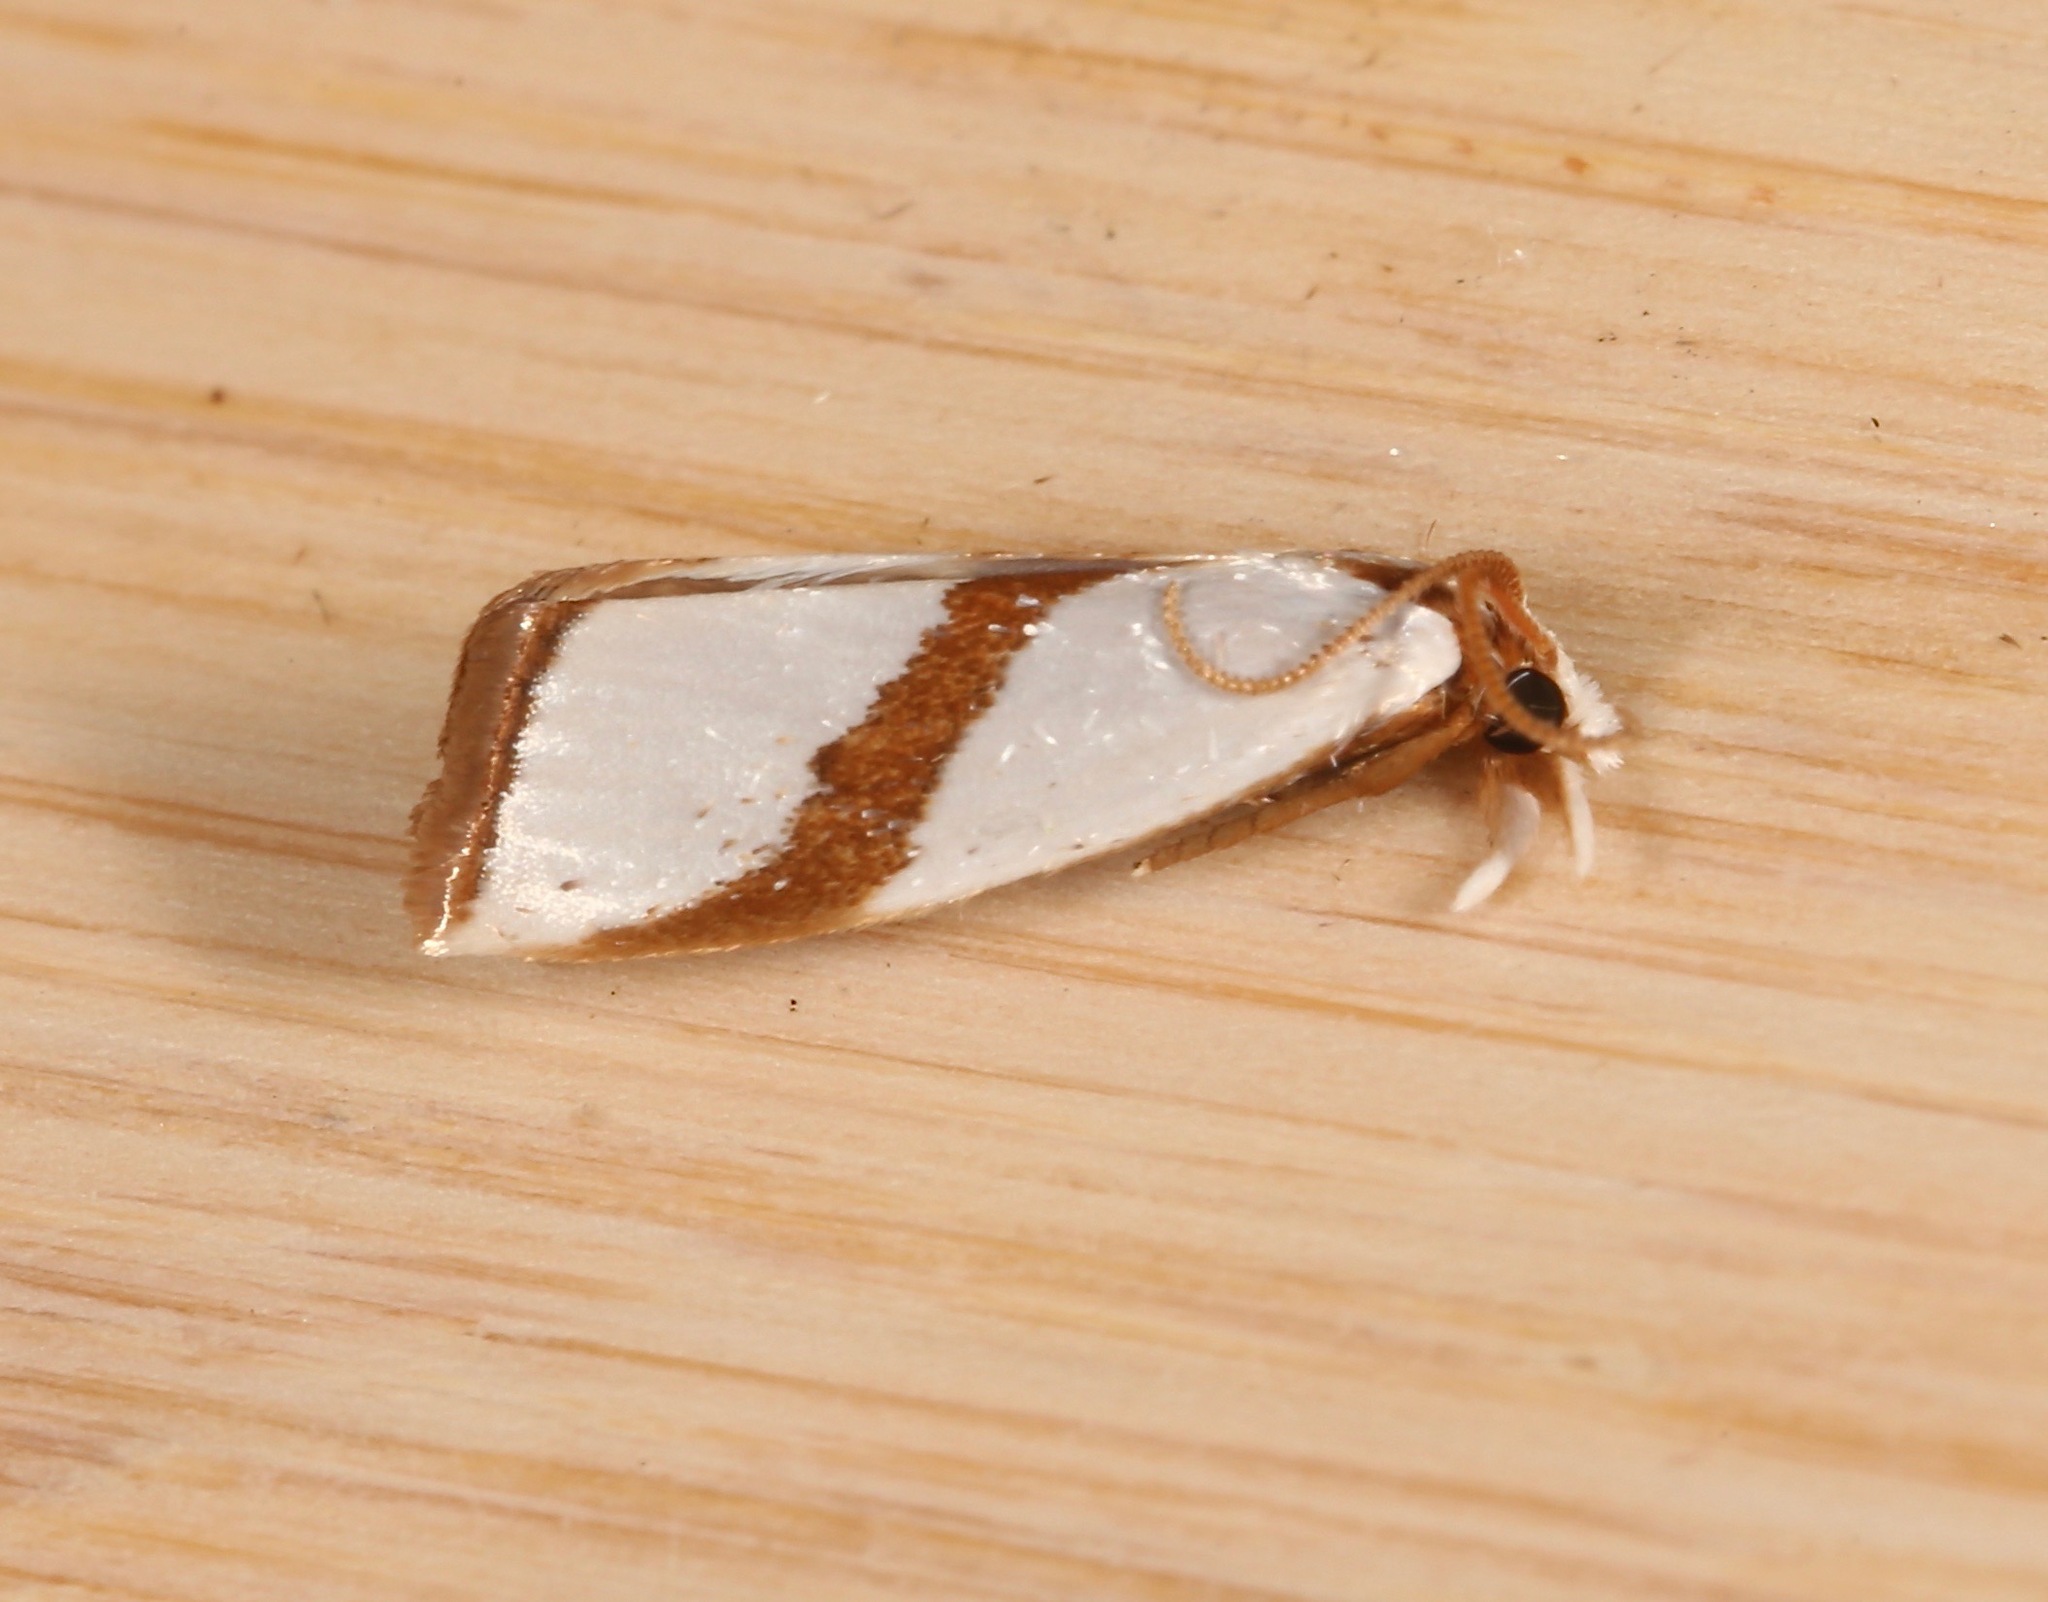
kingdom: Animalia
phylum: Arthropoda
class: Insecta
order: Lepidoptera
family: Crambidae
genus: Vaxi
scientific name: Vaxi critica
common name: Straight-lined vaxi moth
